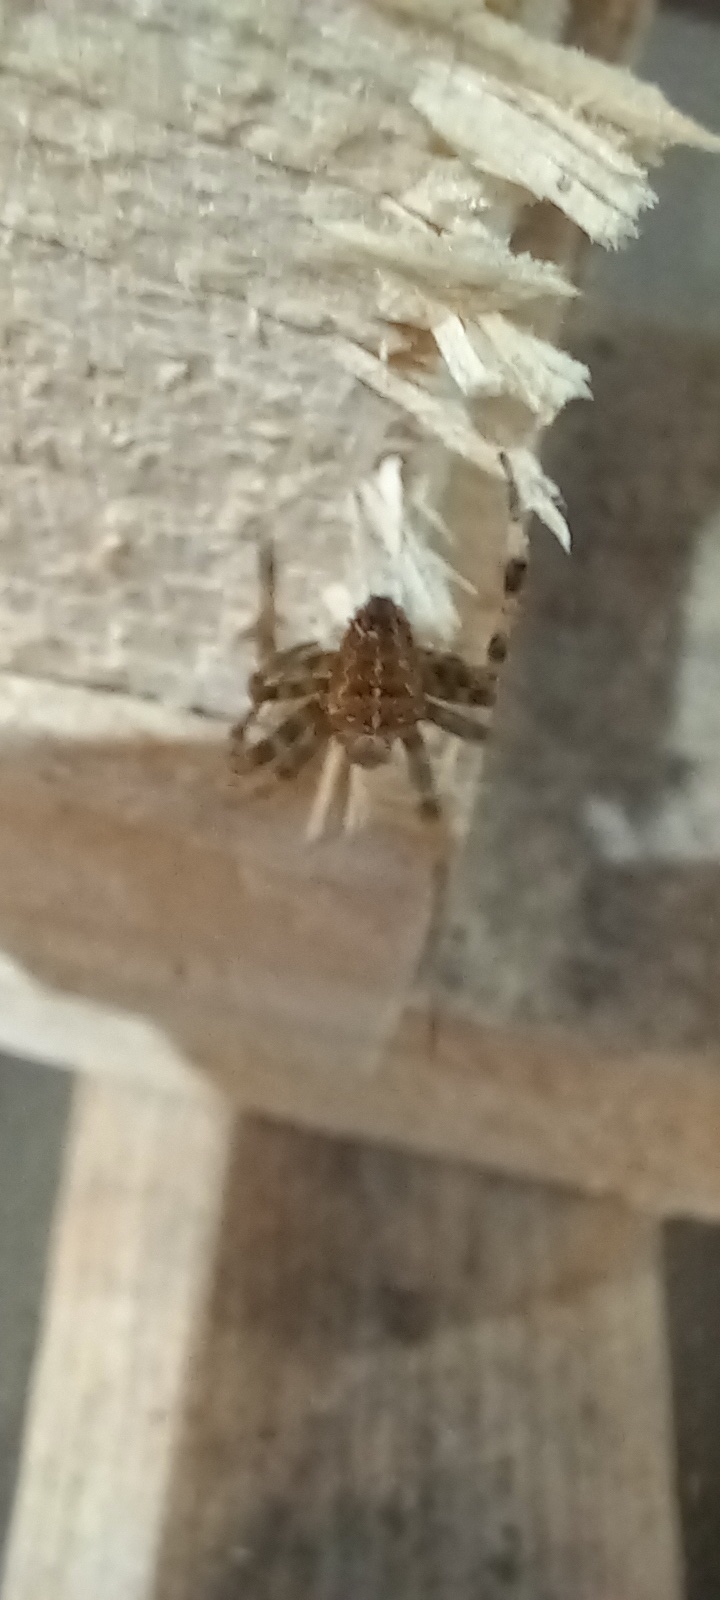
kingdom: Animalia
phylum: Arthropoda
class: Arachnida
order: Araneae
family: Araneidae
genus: Araneus
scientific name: Araneus diadematus
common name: Cross orbweaver
